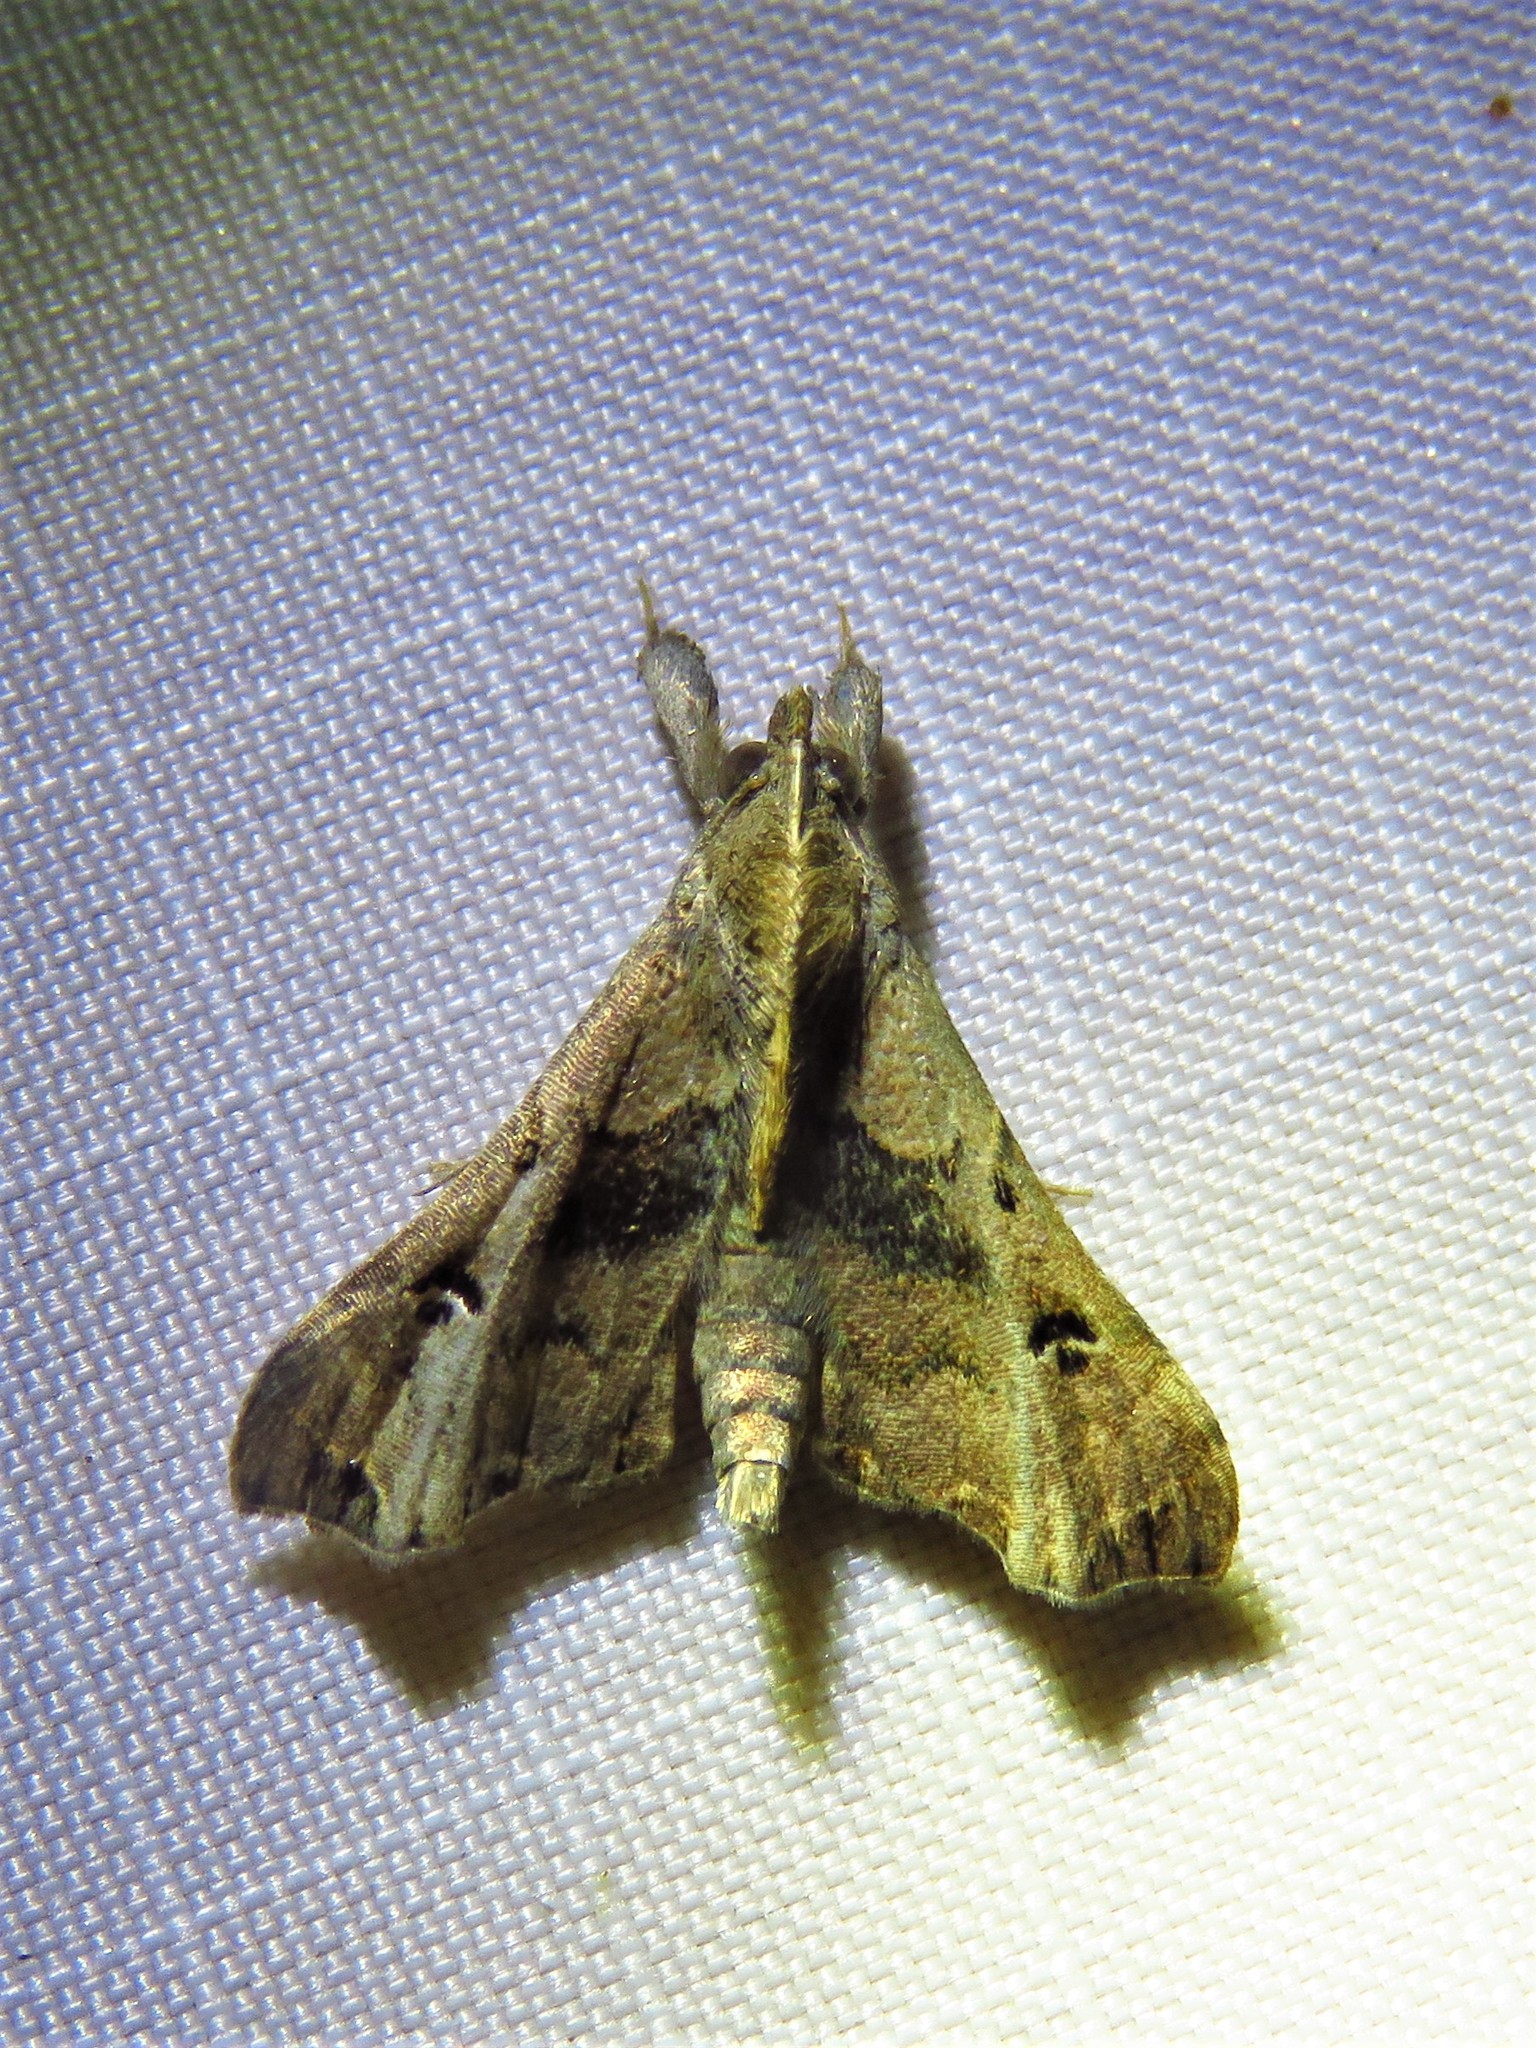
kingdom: Animalia
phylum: Arthropoda
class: Insecta
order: Lepidoptera
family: Erebidae
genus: Palthis
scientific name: Palthis asopialis
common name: Faint-spotted palthis moth
